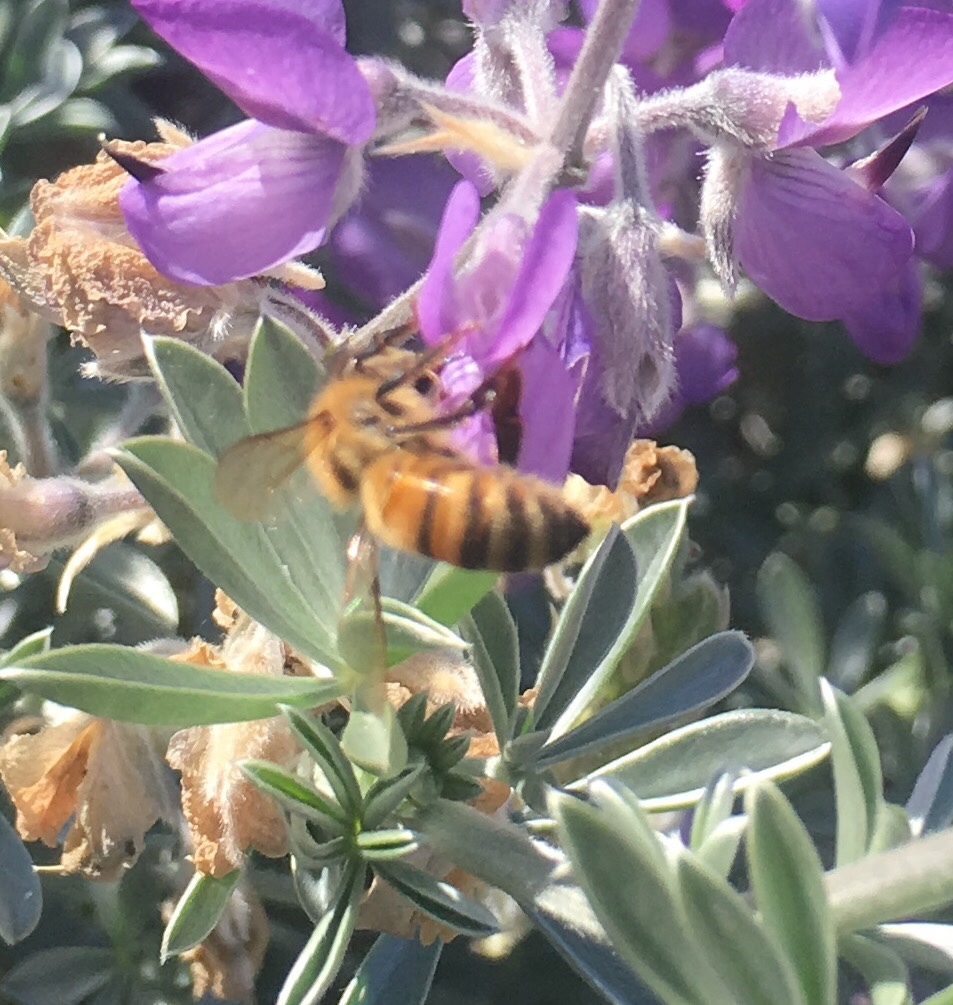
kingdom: Animalia
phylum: Arthropoda
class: Insecta
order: Hymenoptera
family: Apidae
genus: Apis
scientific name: Apis mellifera
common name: Honey bee
